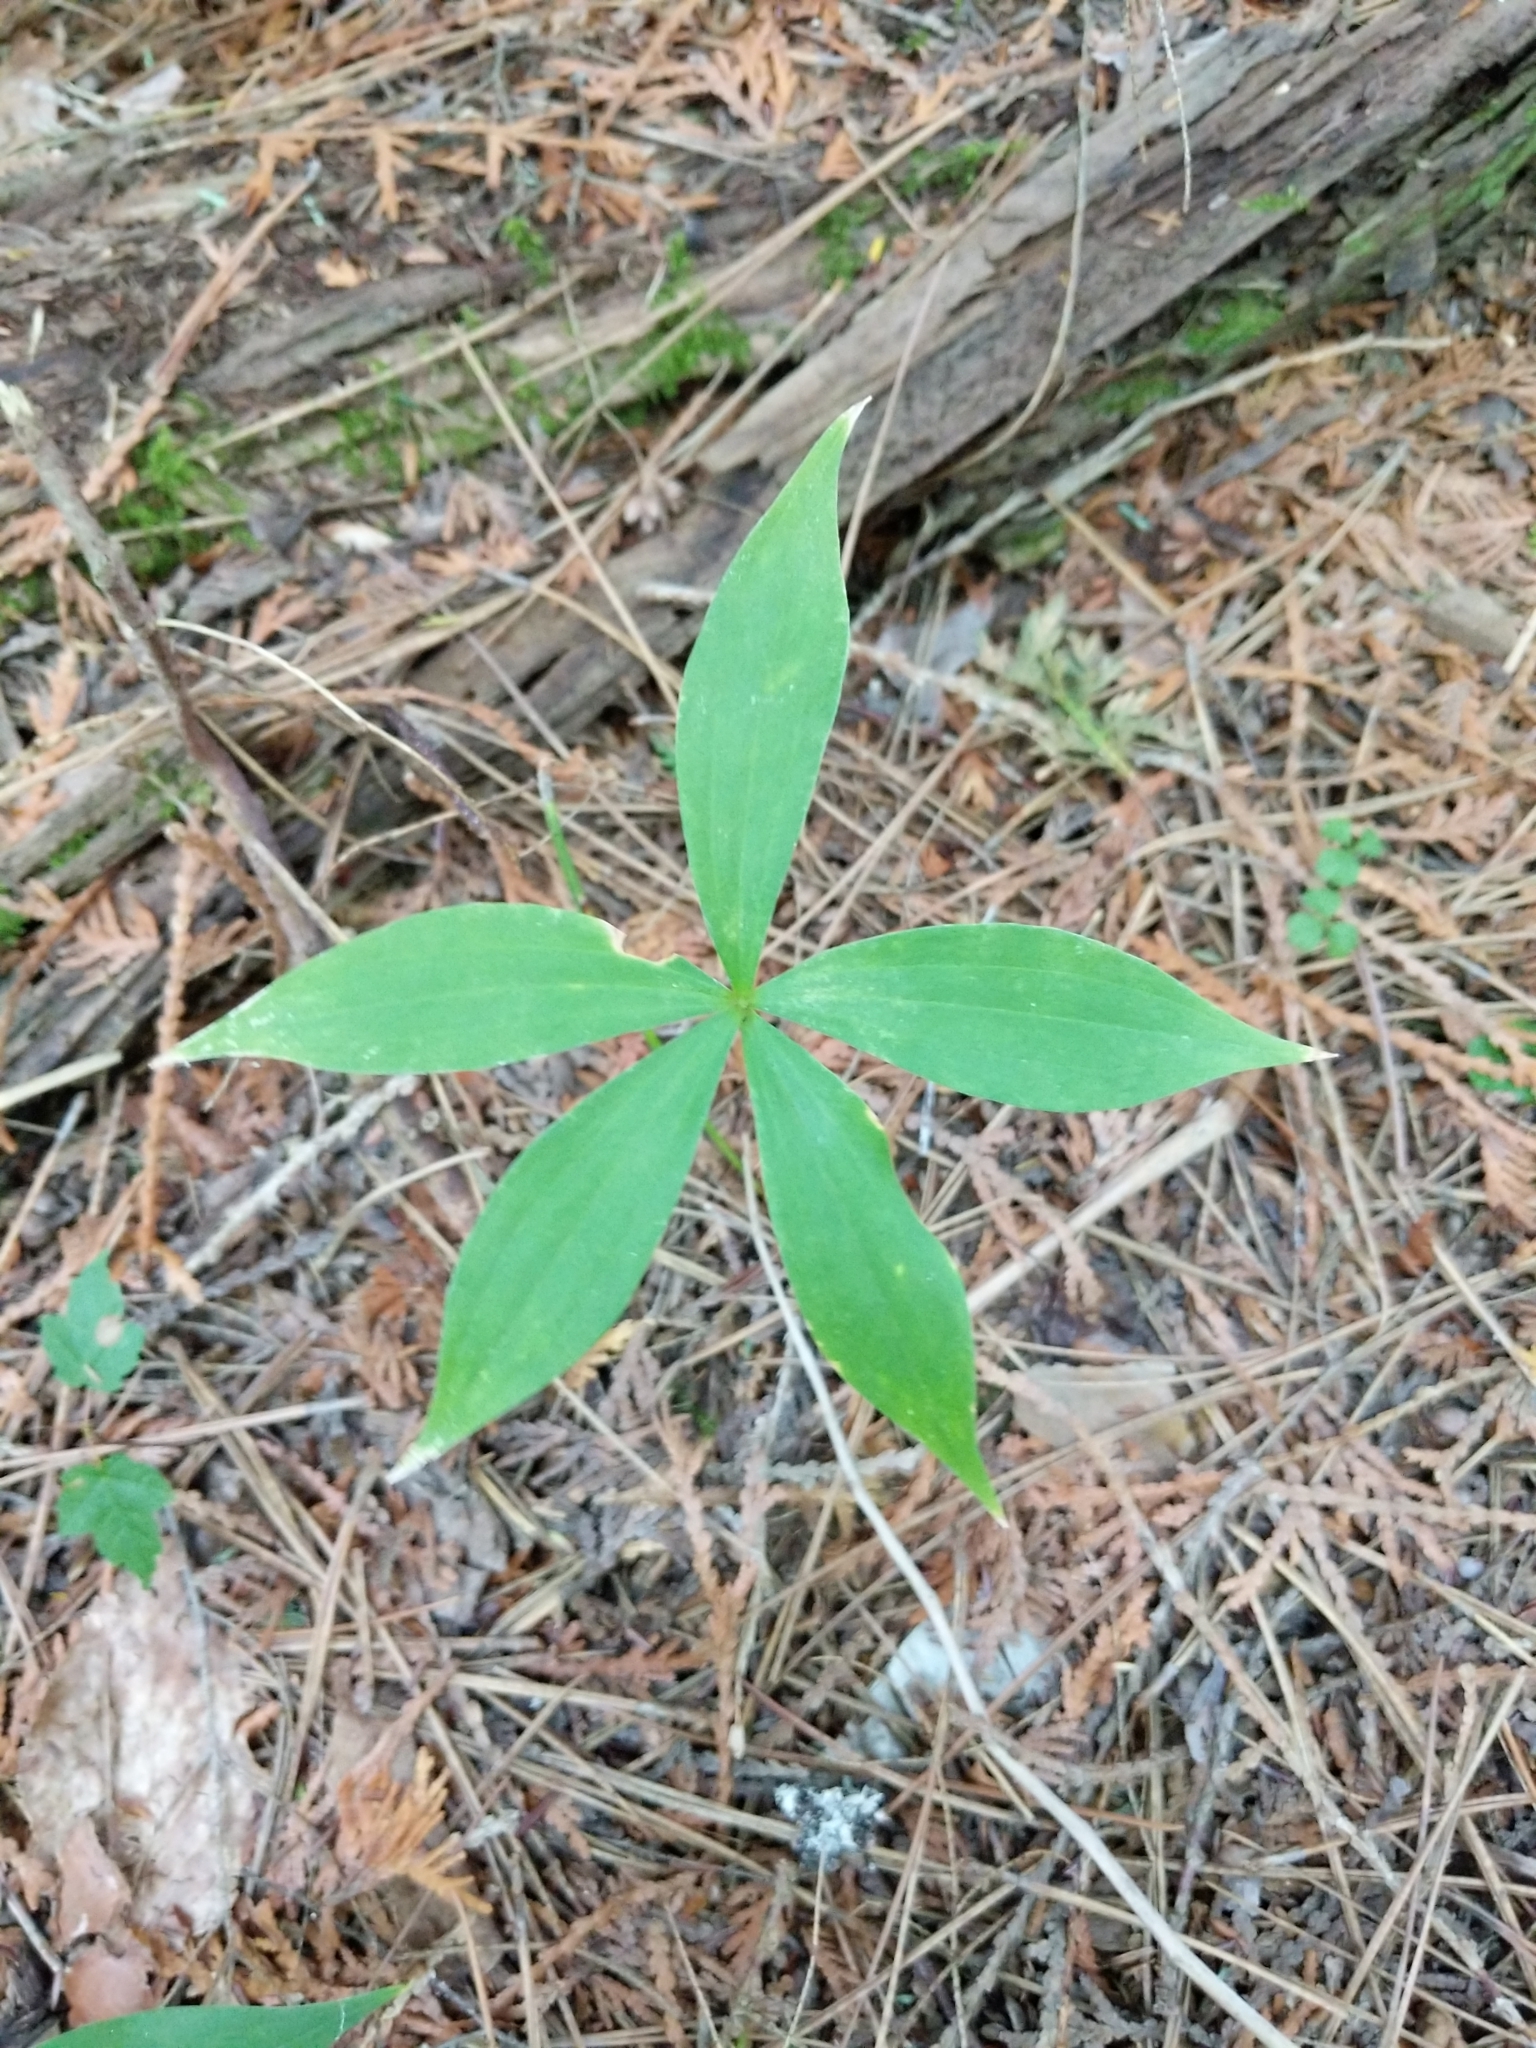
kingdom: Plantae
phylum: Tracheophyta
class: Liliopsida
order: Liliales
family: Liliaceae
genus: Medeola
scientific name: Medeola virginiana
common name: Indian cucumber-root
